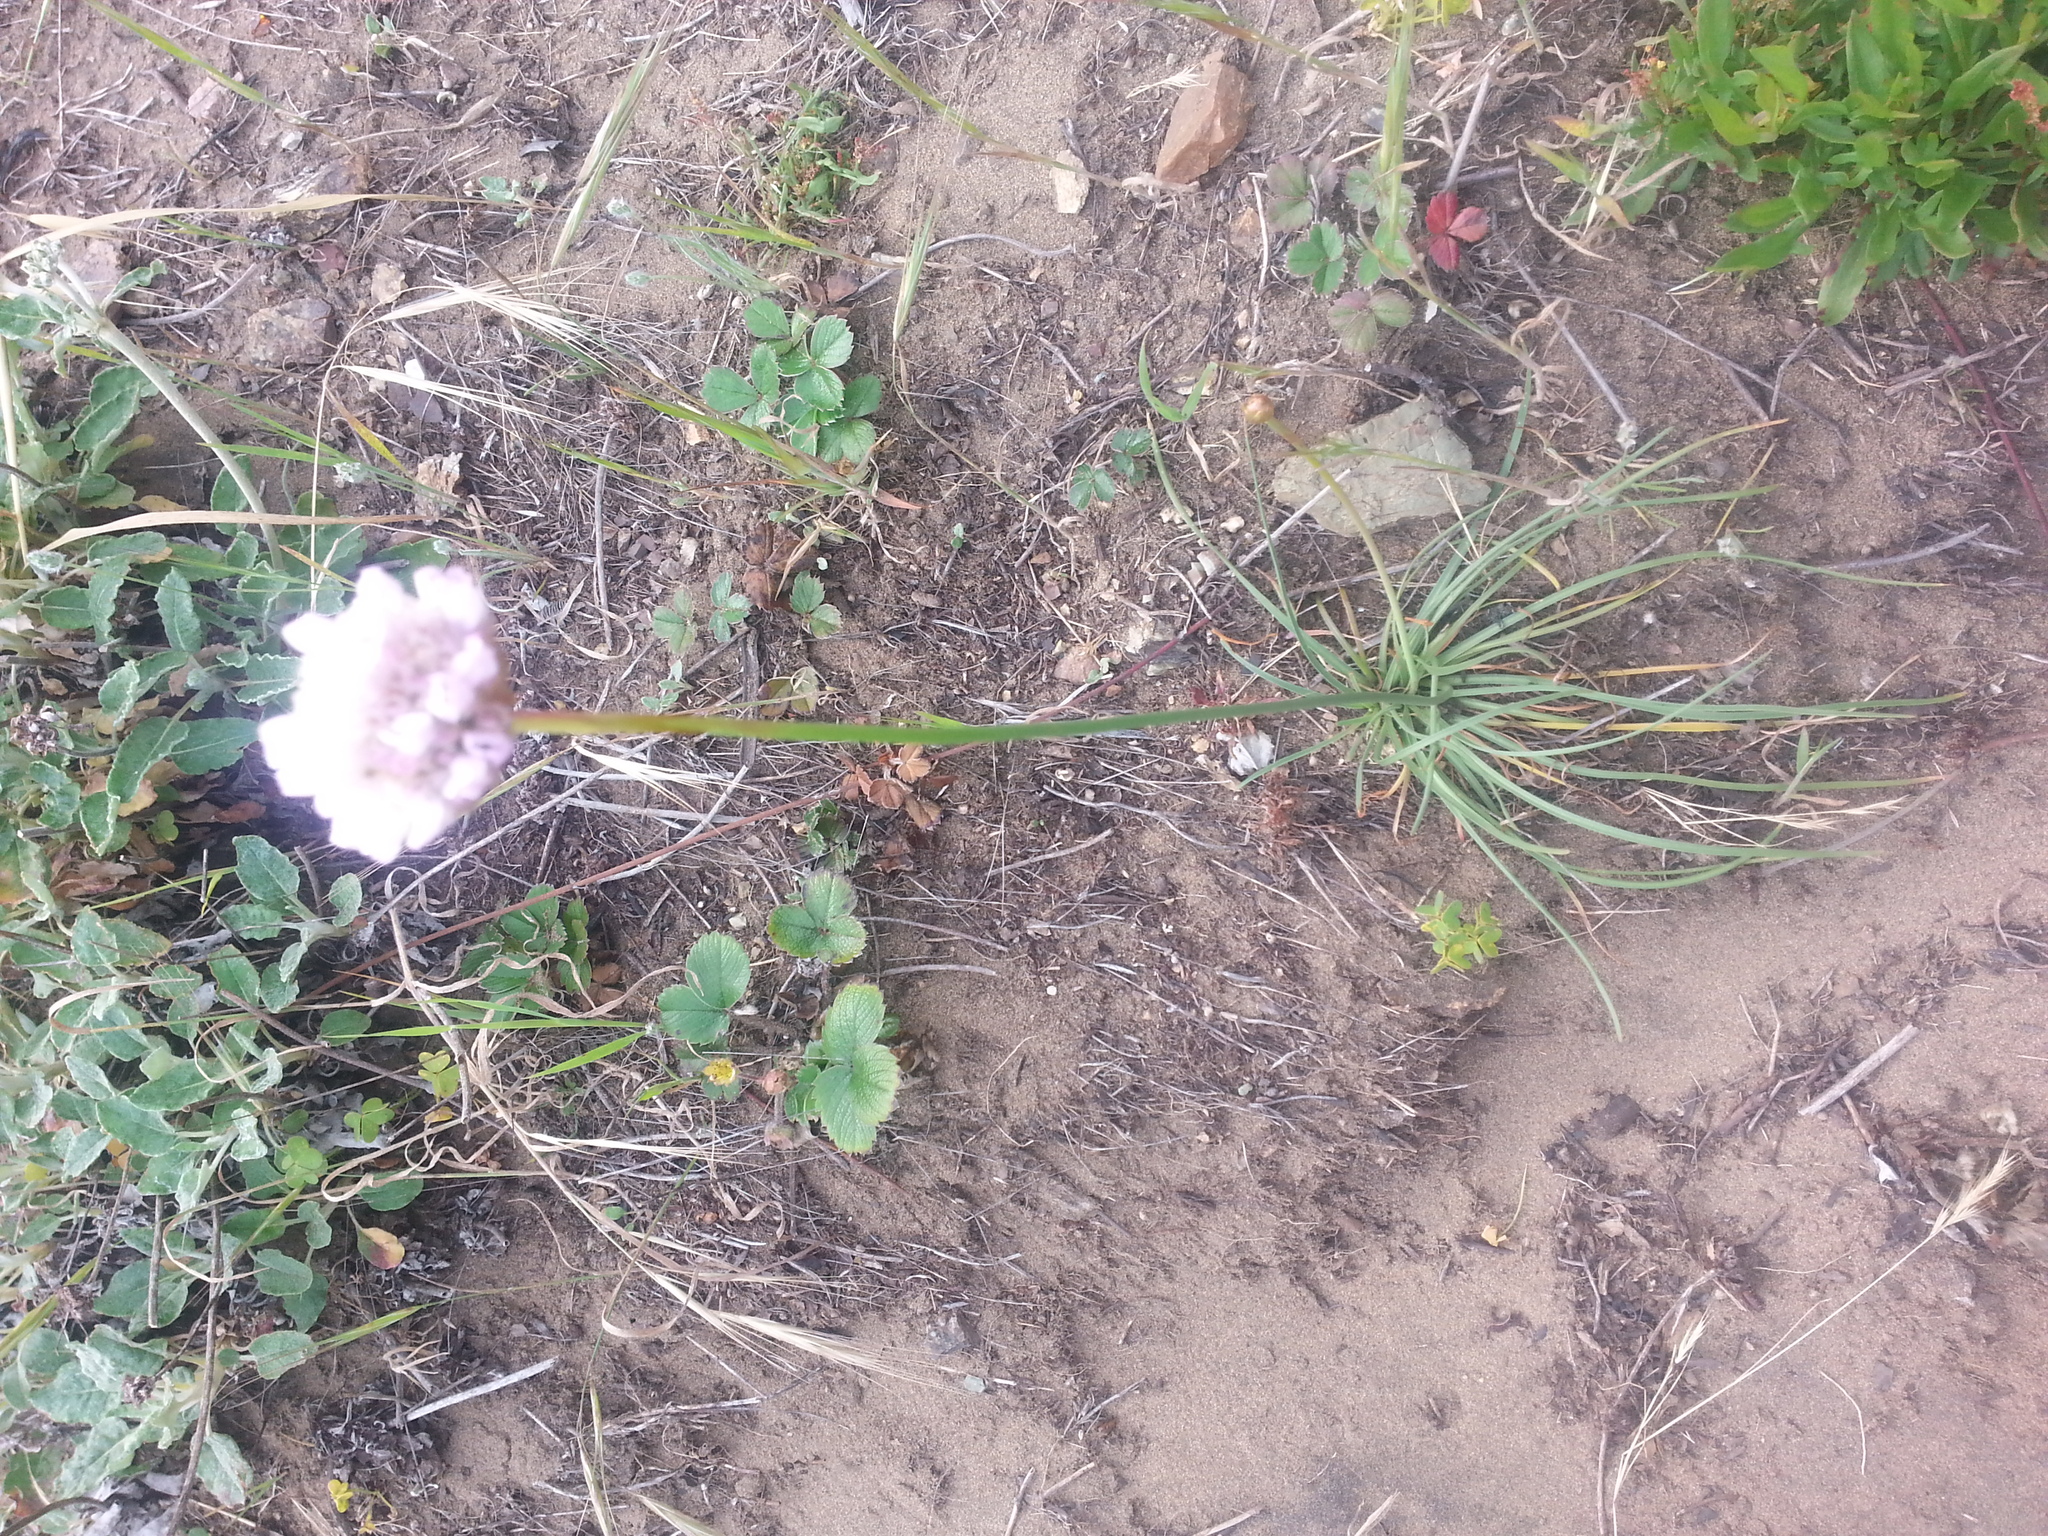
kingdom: Plantae
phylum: Tracheophyta
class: Magnoliopsida
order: Caryophyllales
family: Plumbaginaceae
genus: Armeria
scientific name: Armeria maritima
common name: Thrift
